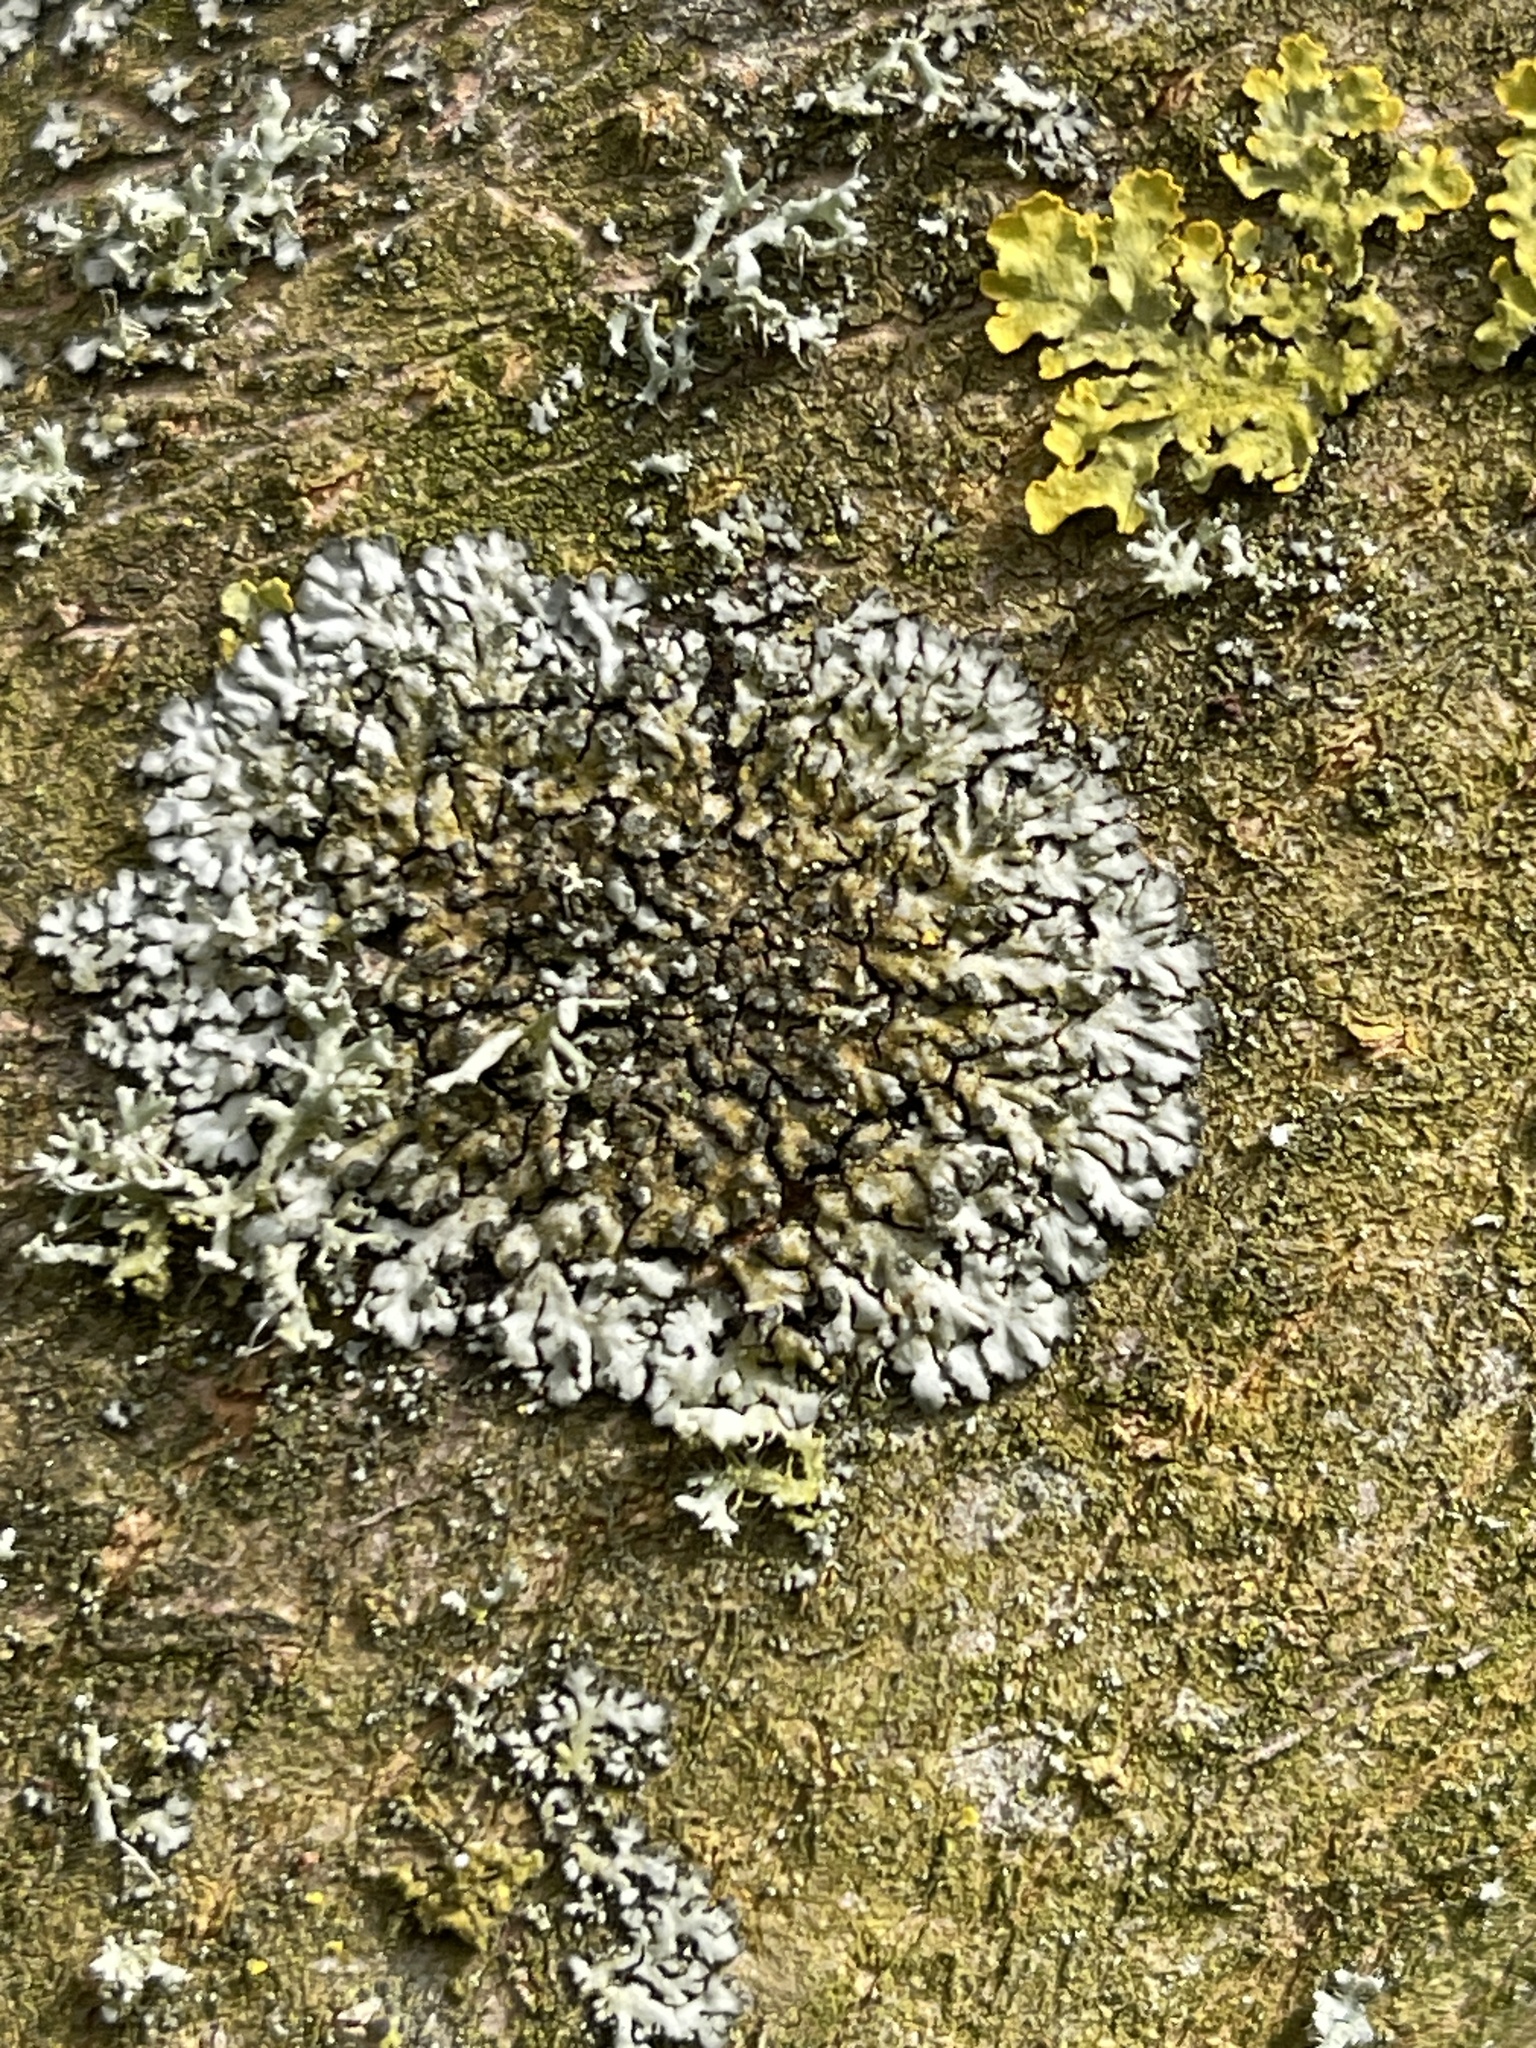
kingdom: Fungi
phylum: Ascomycota
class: Lecanoromycetes
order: Caliciales
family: Physciaceae
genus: Phaeophyscia
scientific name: Phaeophyscia orbicularis
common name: Mealy shadow lichen
